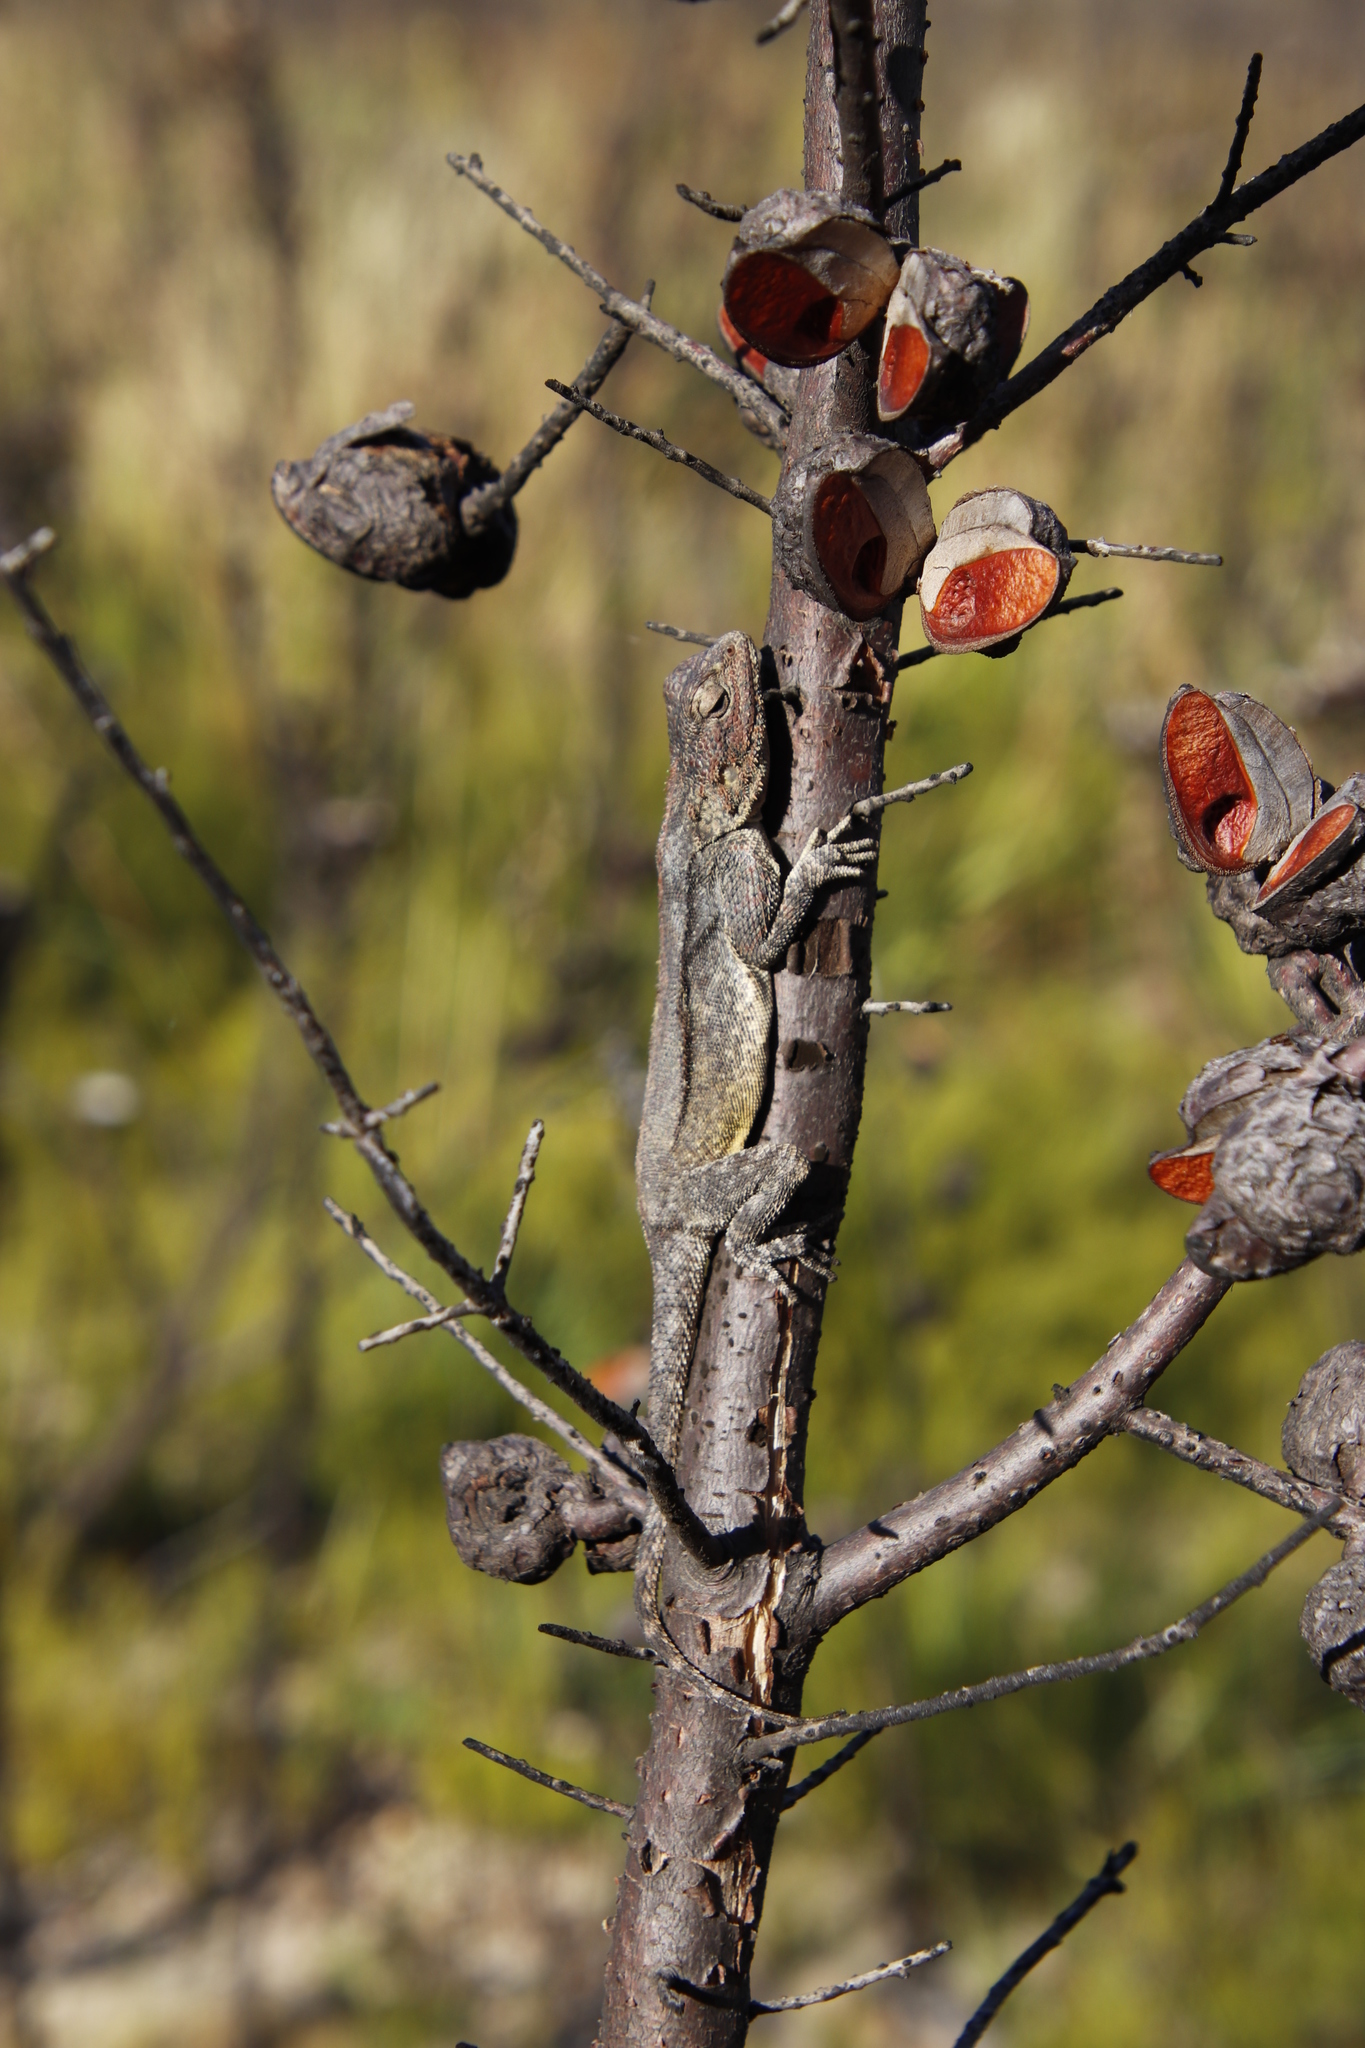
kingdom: Animalia
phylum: Chordata
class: Squamata
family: Agamidae
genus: Agama
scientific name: Agama atra
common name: Southern african rock agama
